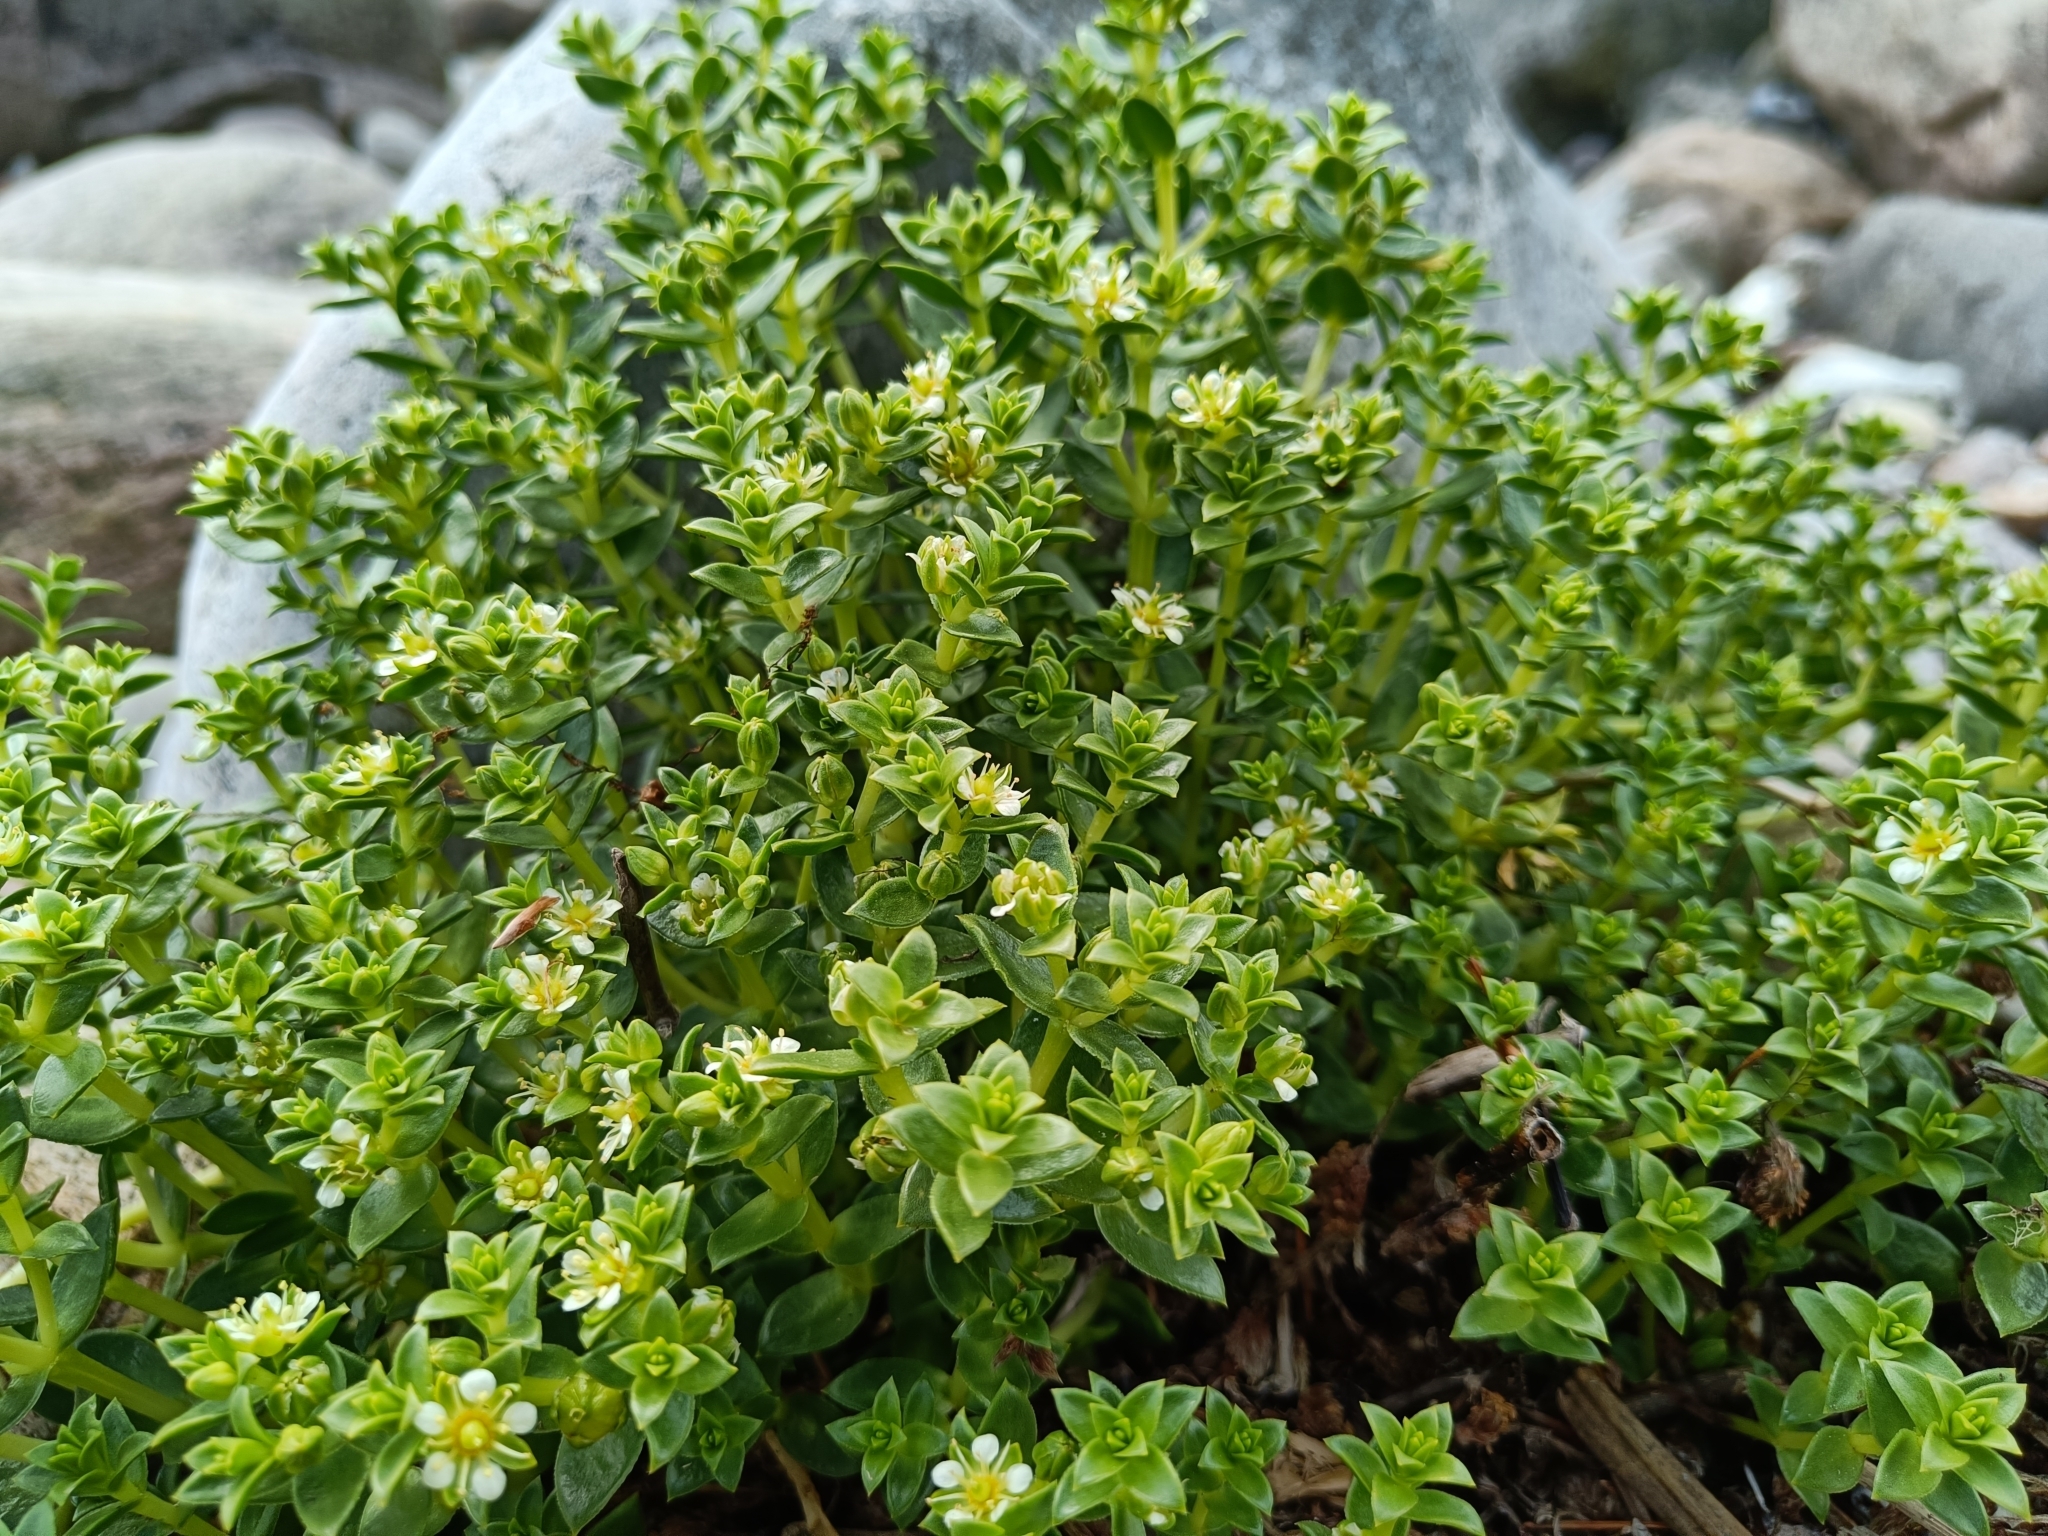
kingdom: Plantae
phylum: Tracheophyta
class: Magnoliopsida
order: Caryophyllales
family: Caryophyllaceae
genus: Honckenya
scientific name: Honckenya peploides
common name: Sea sandwort
